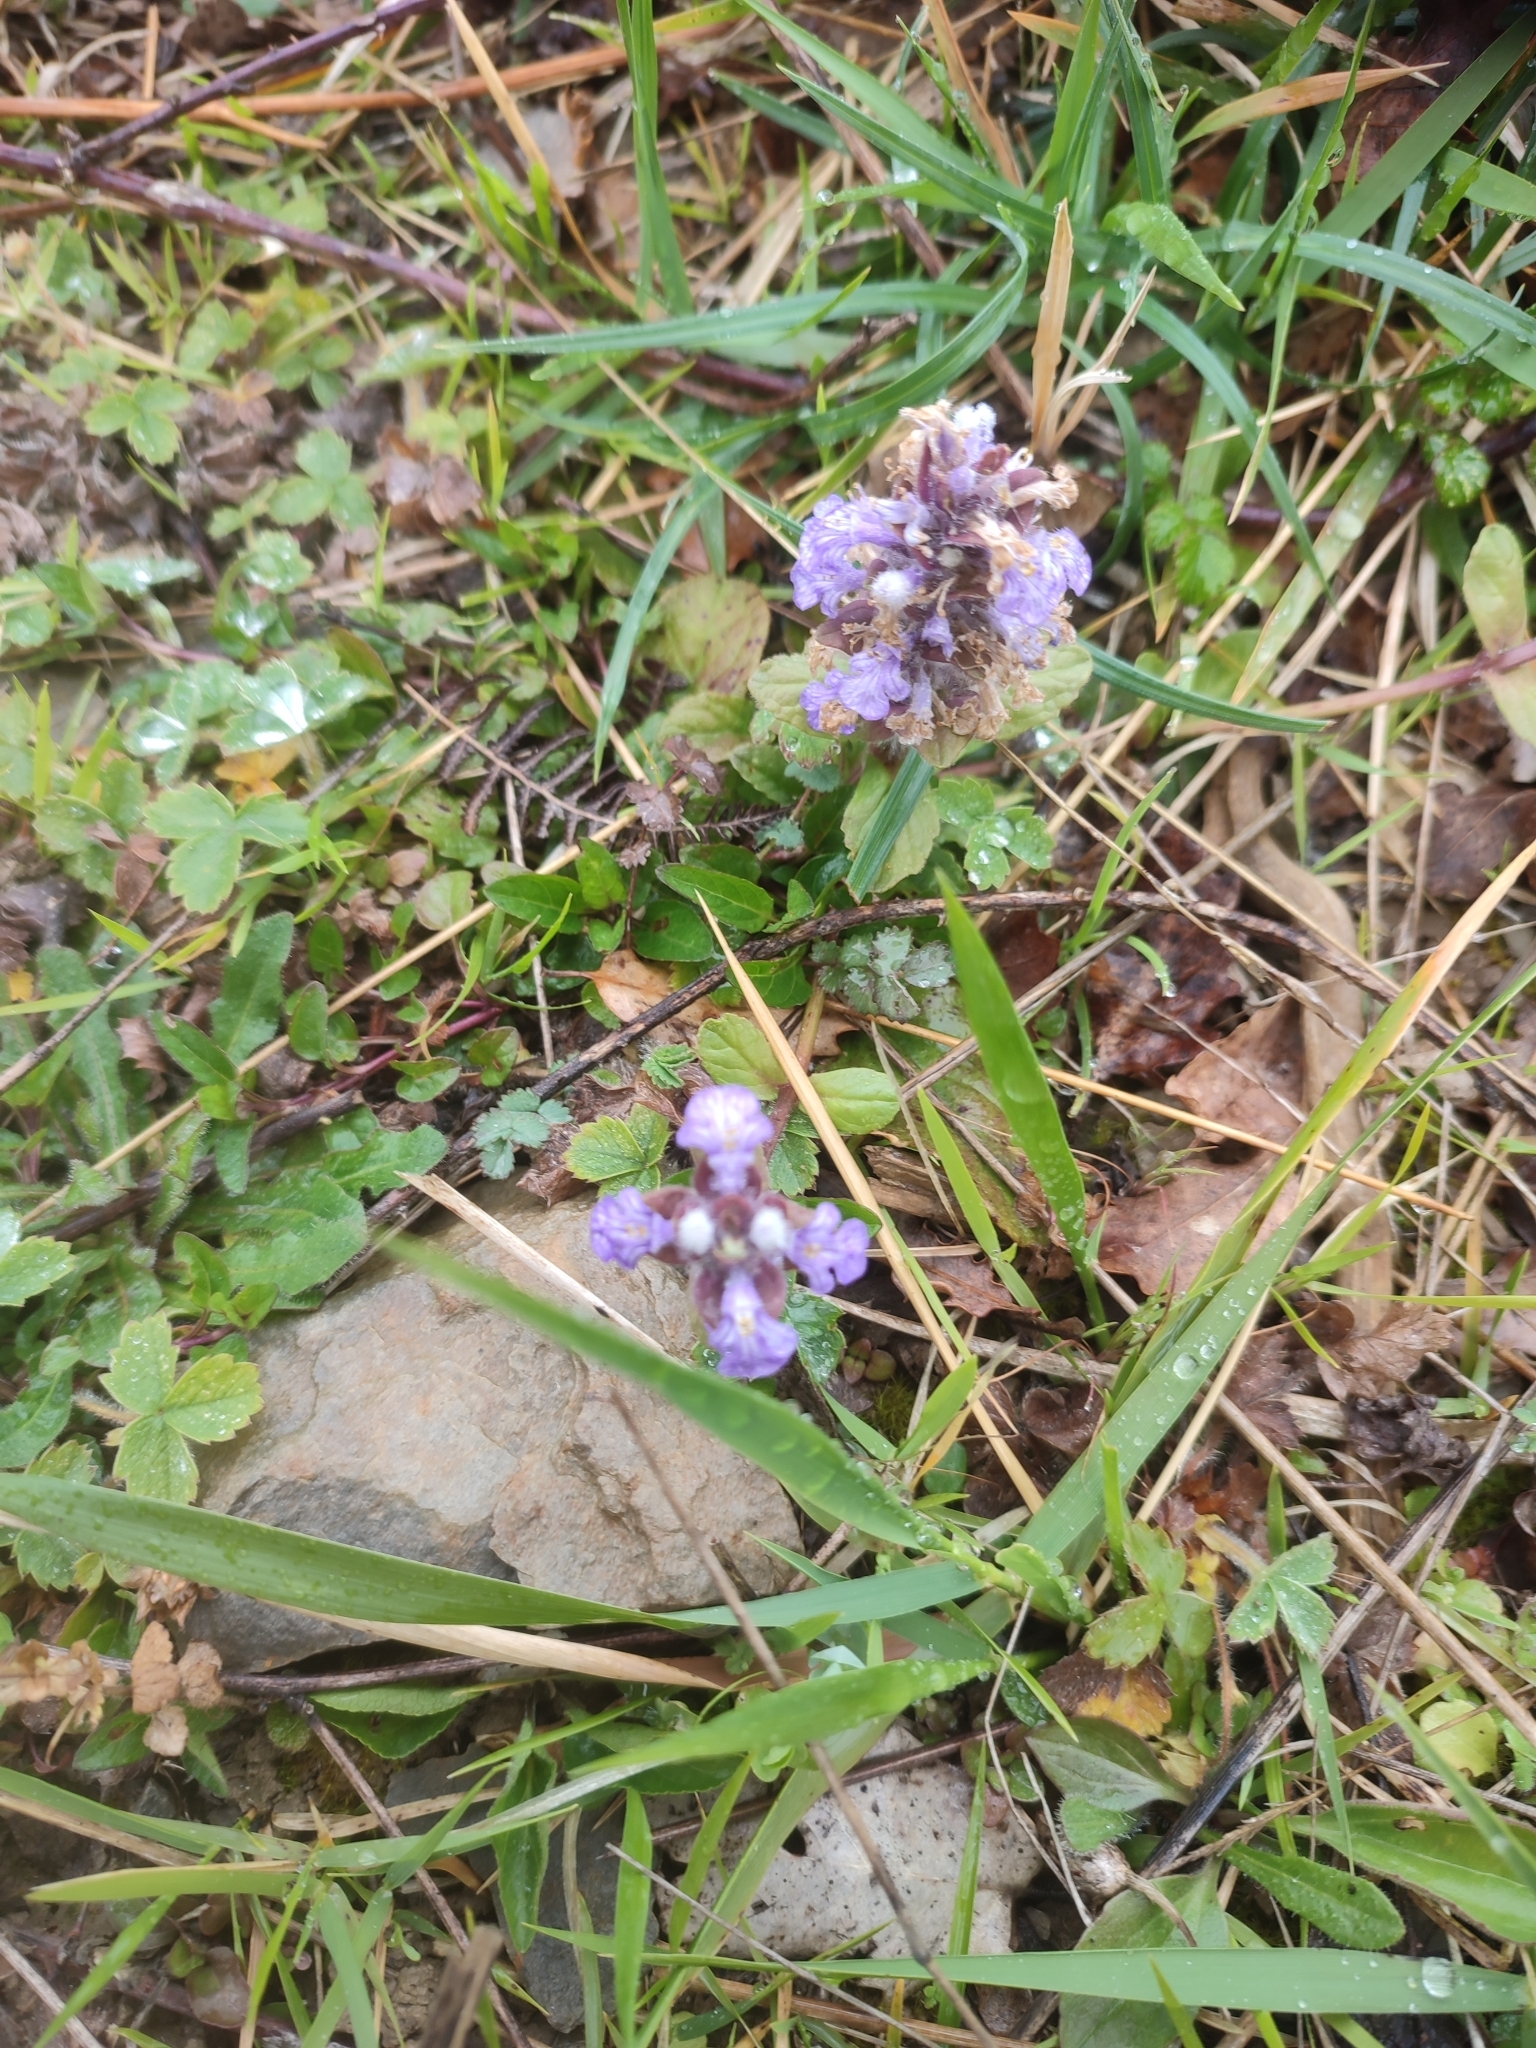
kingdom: Plantae
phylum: Tracheophyta
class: Magnoliopsida
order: Lamiales
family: Lamiaceae
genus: Ajuga
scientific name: Ajuga reptans
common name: Bugle
